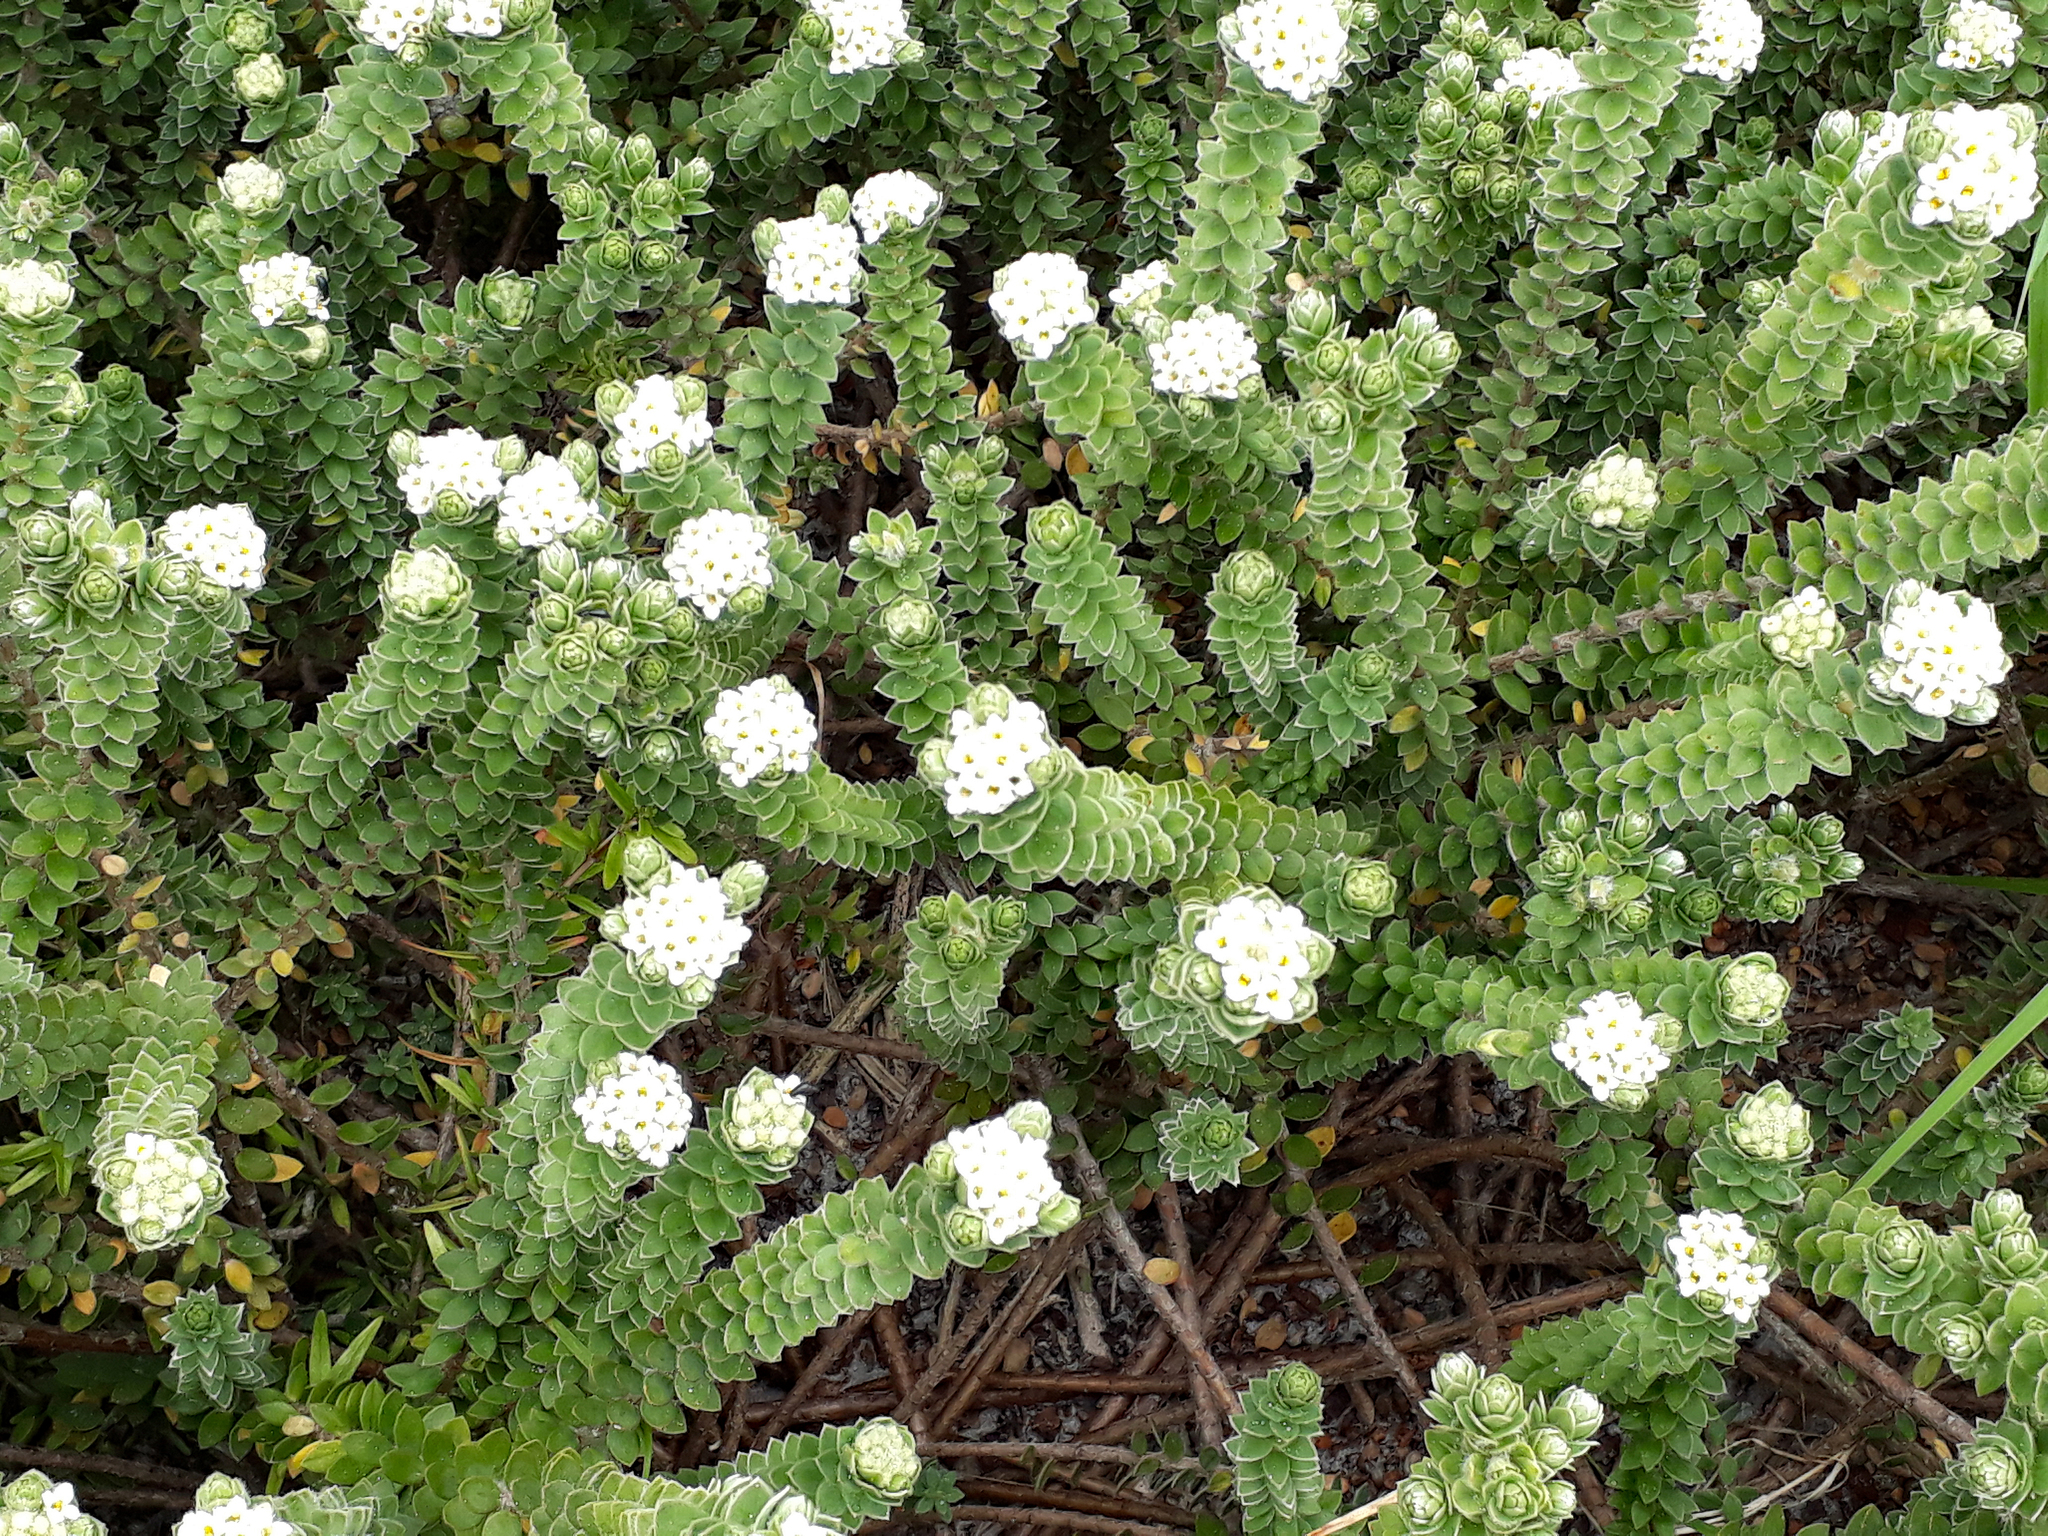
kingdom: Plantae
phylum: Tracheophyta
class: Magnoliopsida
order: Malvales
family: Thymelaeaceae
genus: Pimelea
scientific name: Pimelea villosa
